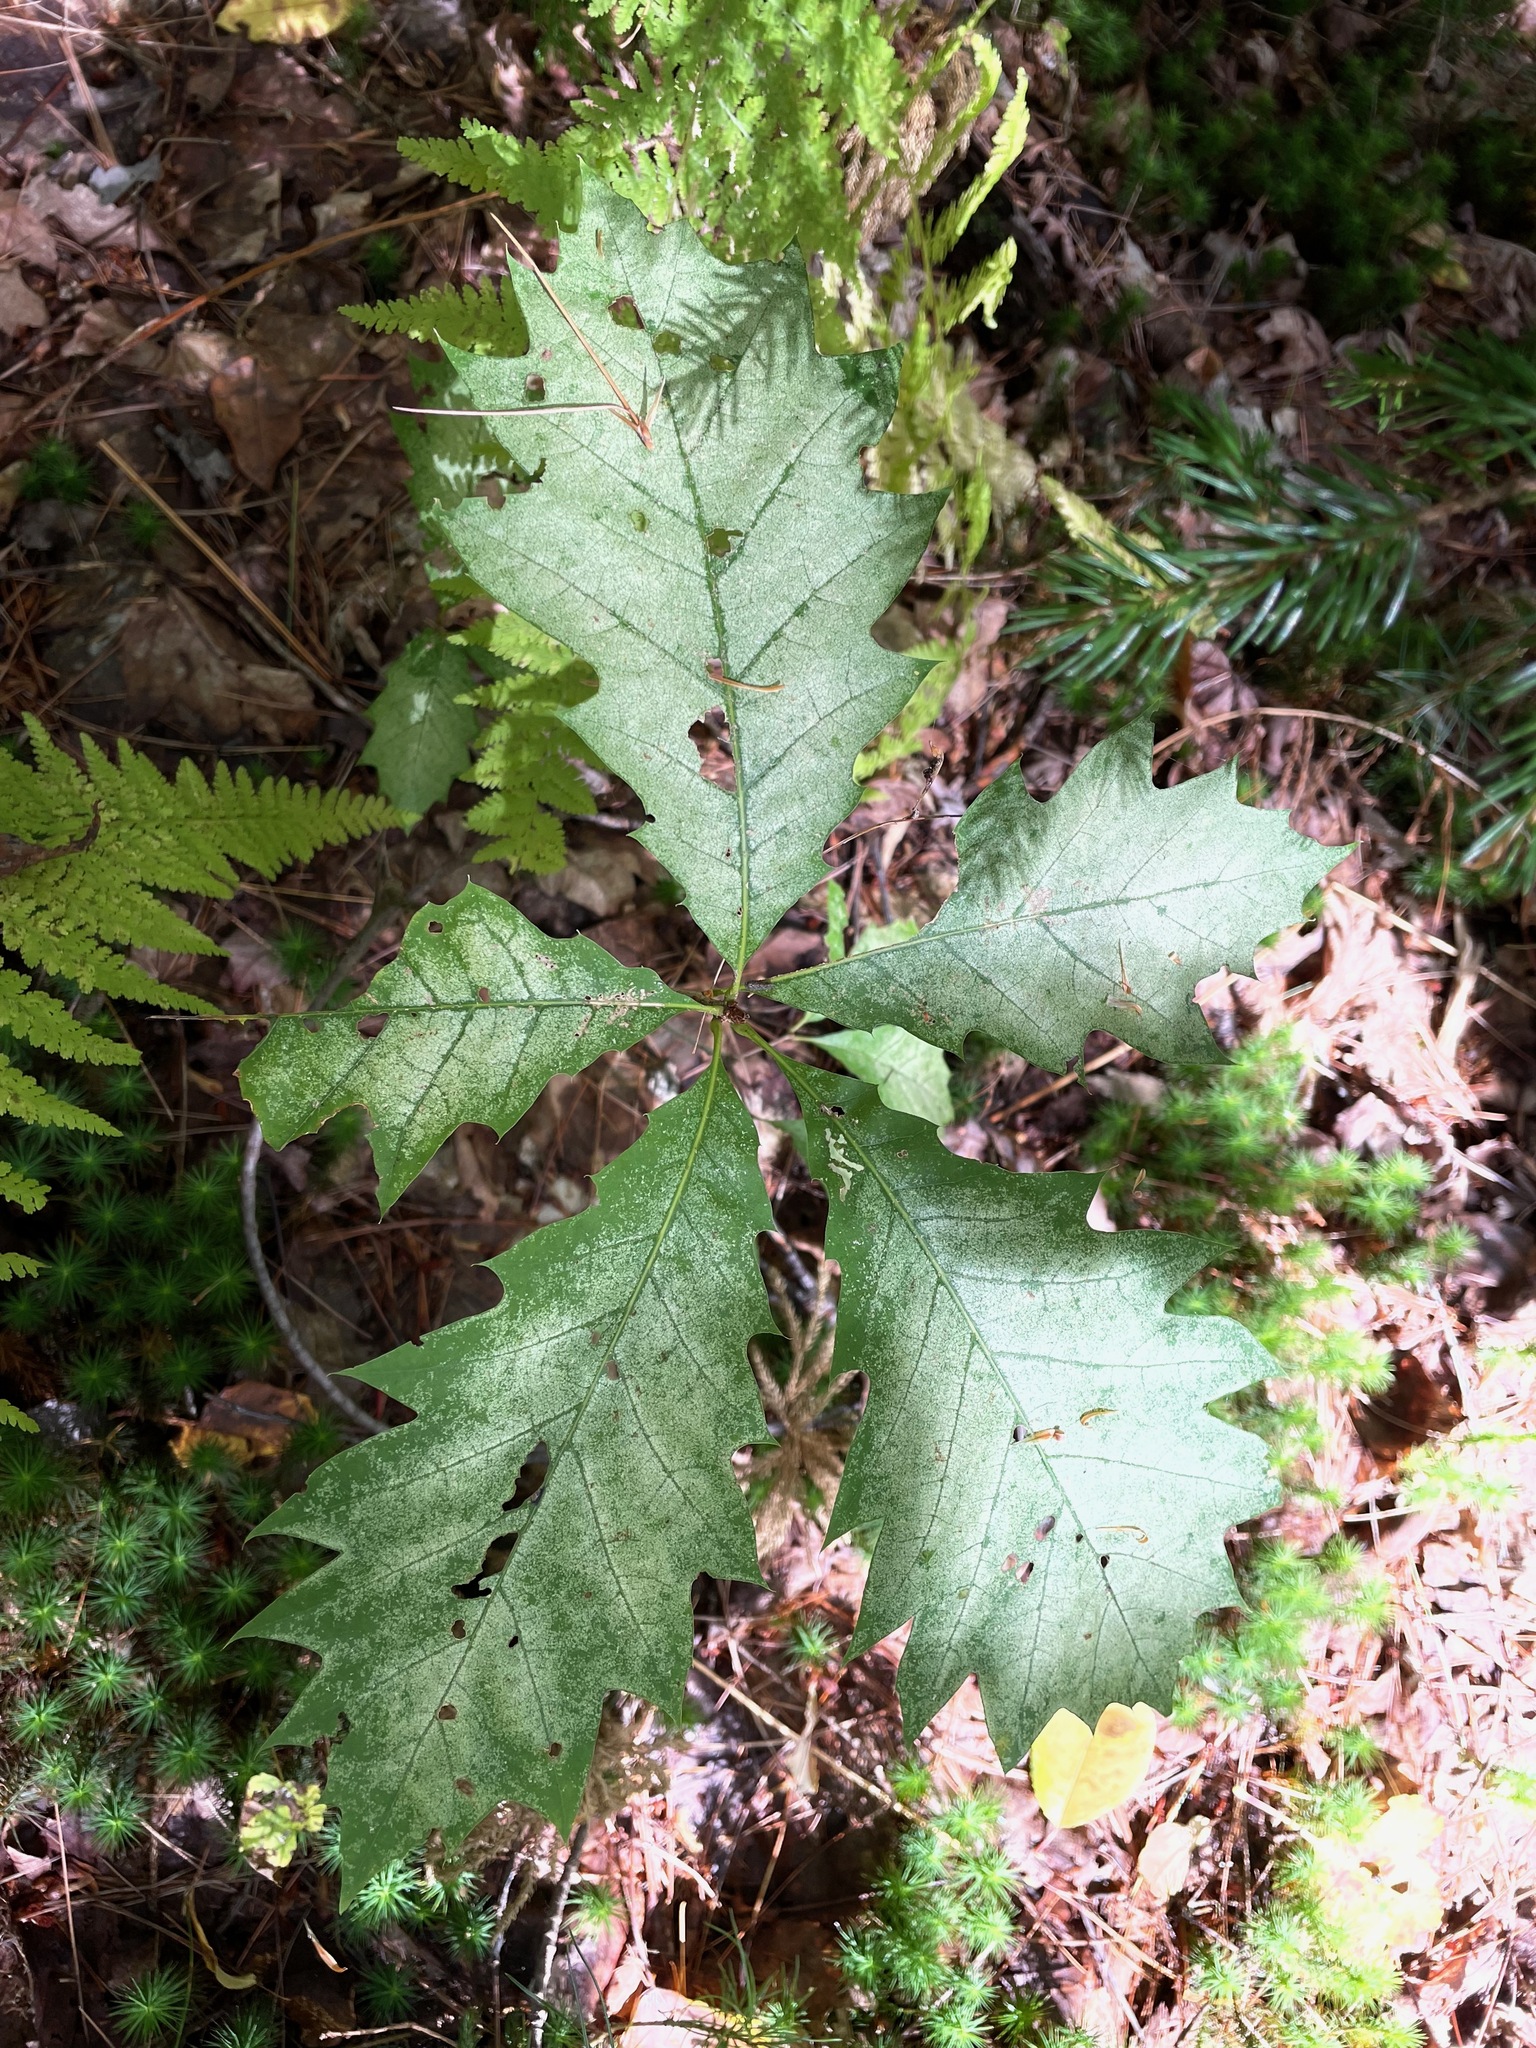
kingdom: Plantae
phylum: Tracheophyta
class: Magnoliopsida
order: Fagales
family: Fagaceae
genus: Quercus
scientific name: Quercus rubra
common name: Red oak
